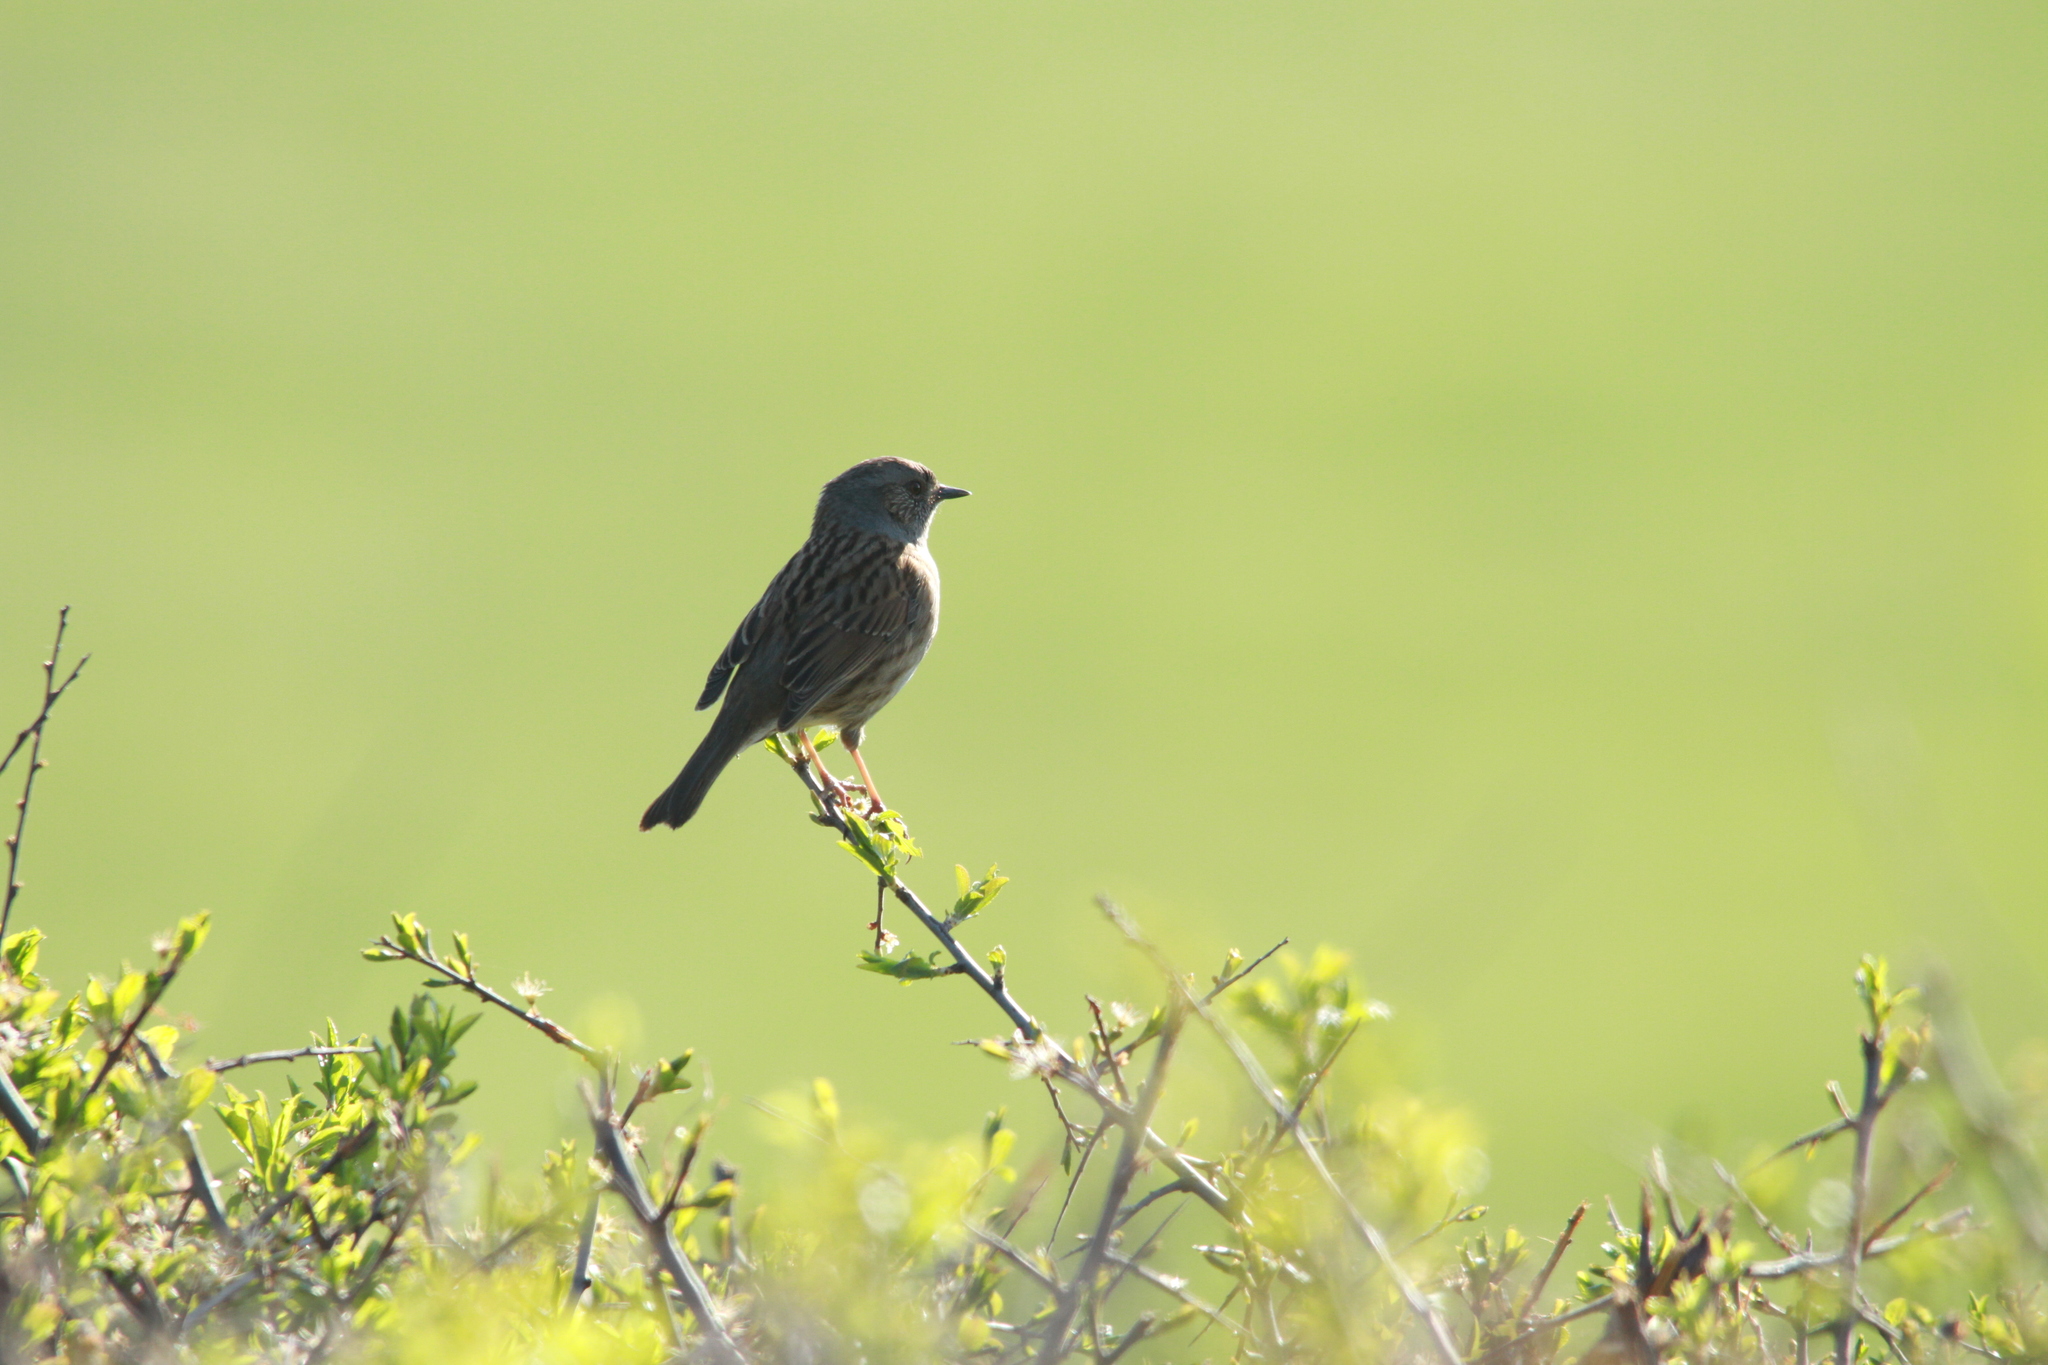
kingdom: Animalia
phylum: Chordata
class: Aves
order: Passeriformes
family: Prunellidae
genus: Prunella
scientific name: Prunella modularis
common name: Dunnock
